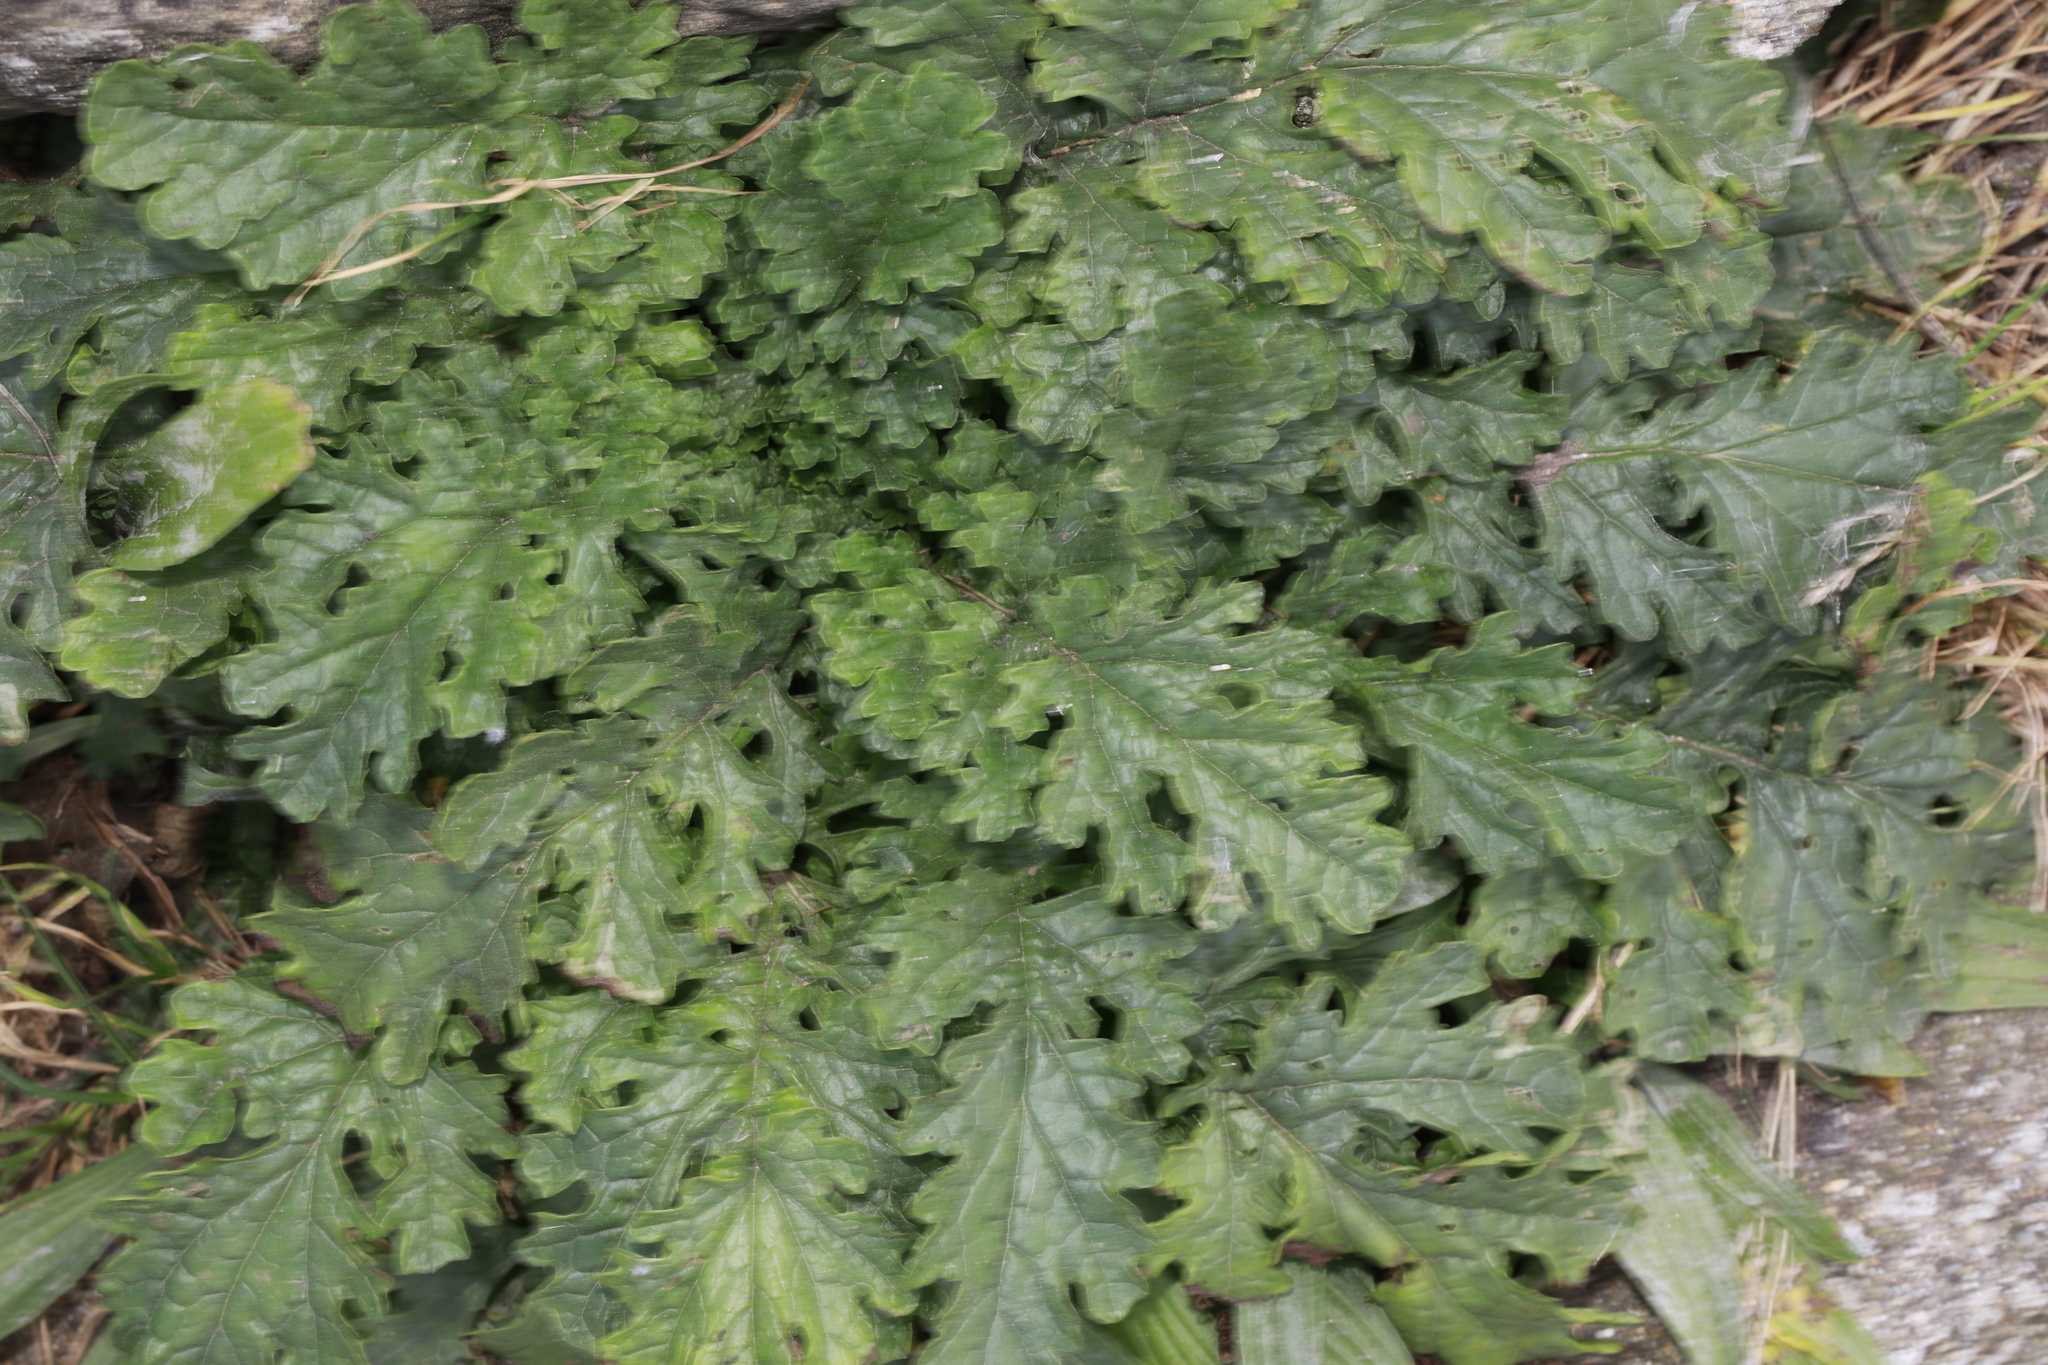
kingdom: Plantae
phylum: Tracheophyta
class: Magnoliopsida
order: Asterales
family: Asteraceae
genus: Jacobaea
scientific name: Jacobaea vulgaris
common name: Stinking willie
